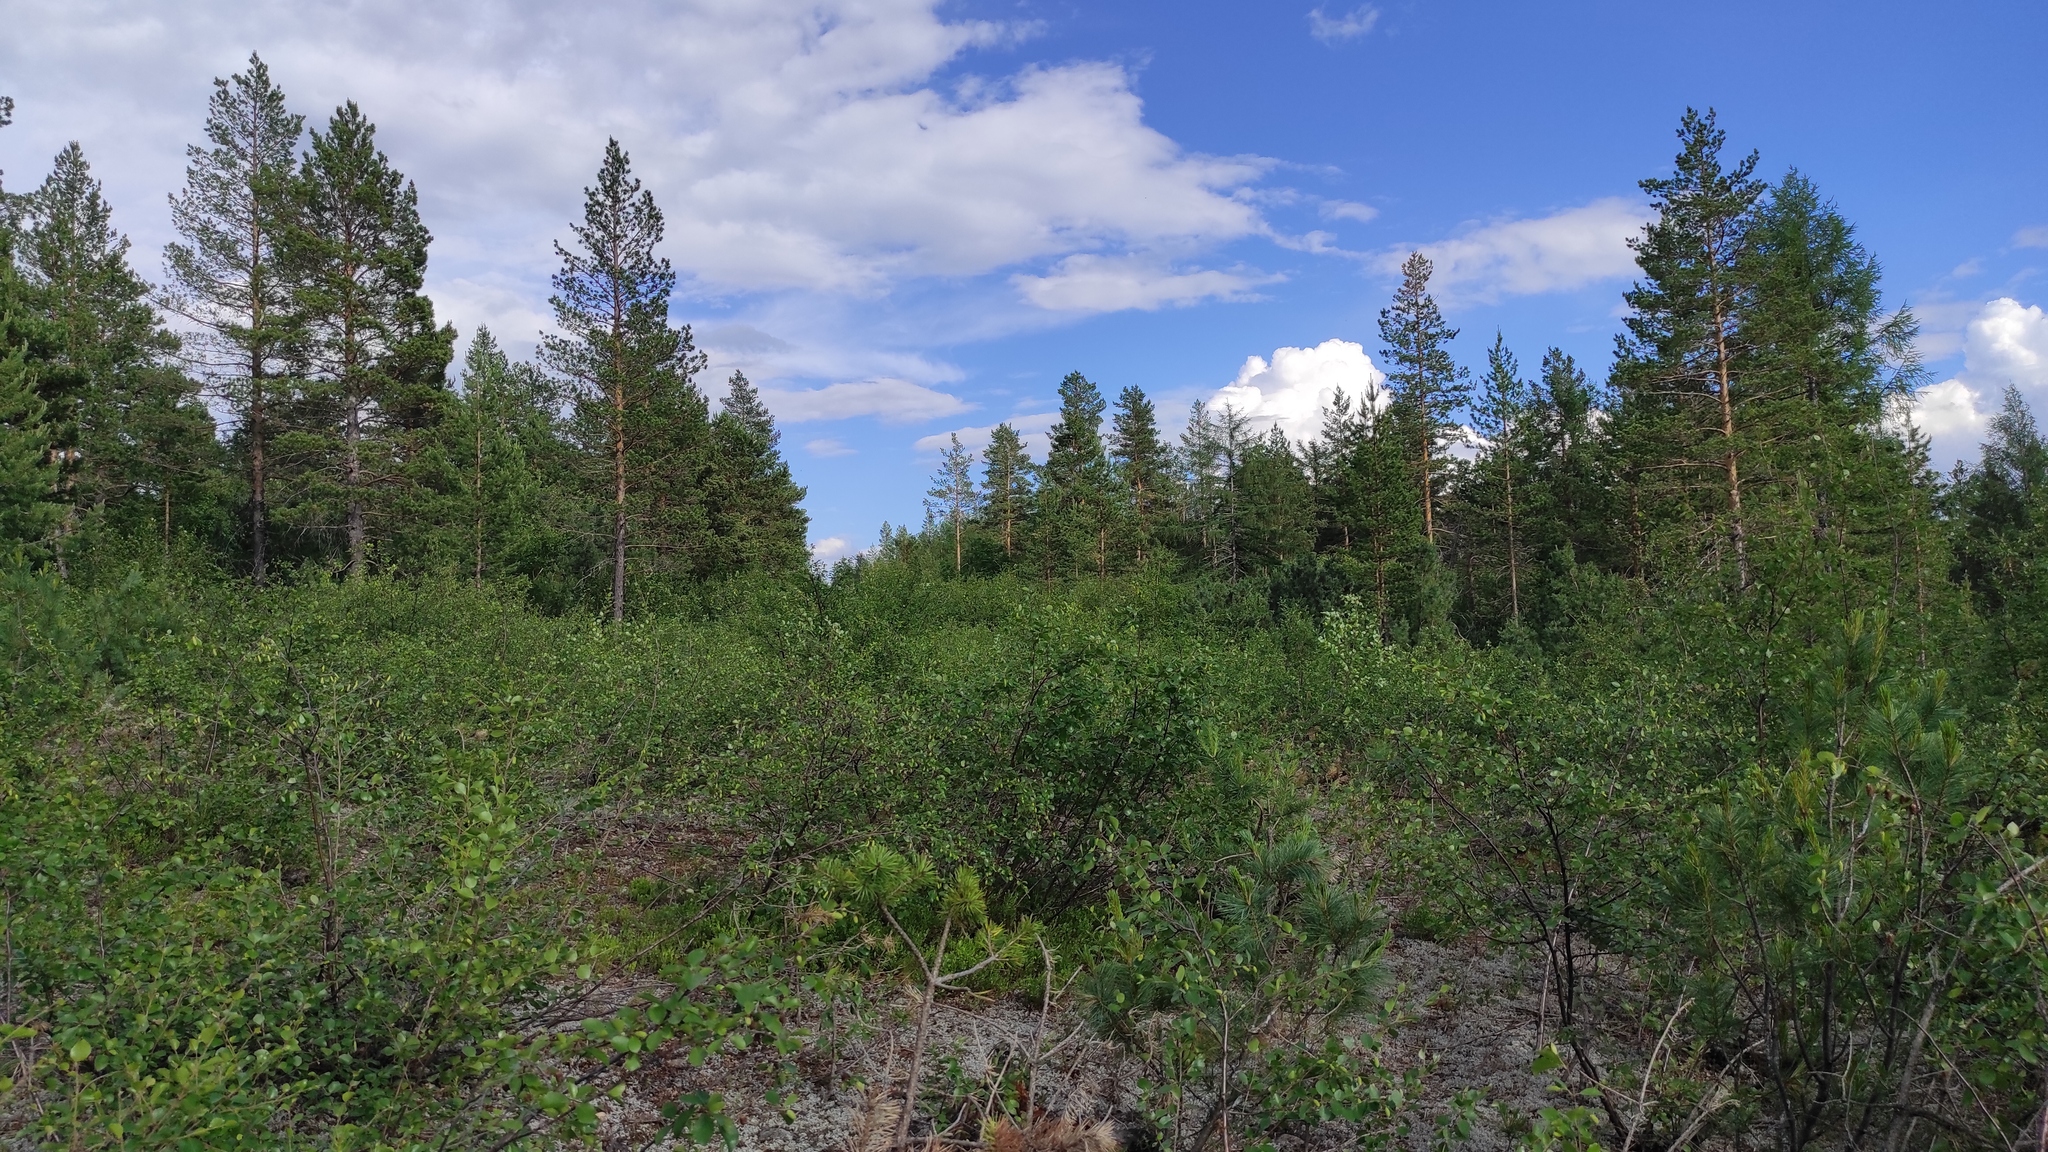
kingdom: Plantae
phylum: Tracheophyta
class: Pinopsida
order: Pinales
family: Pinaceae
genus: Pinus
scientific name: Pinus sylvestris
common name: Scots pine
